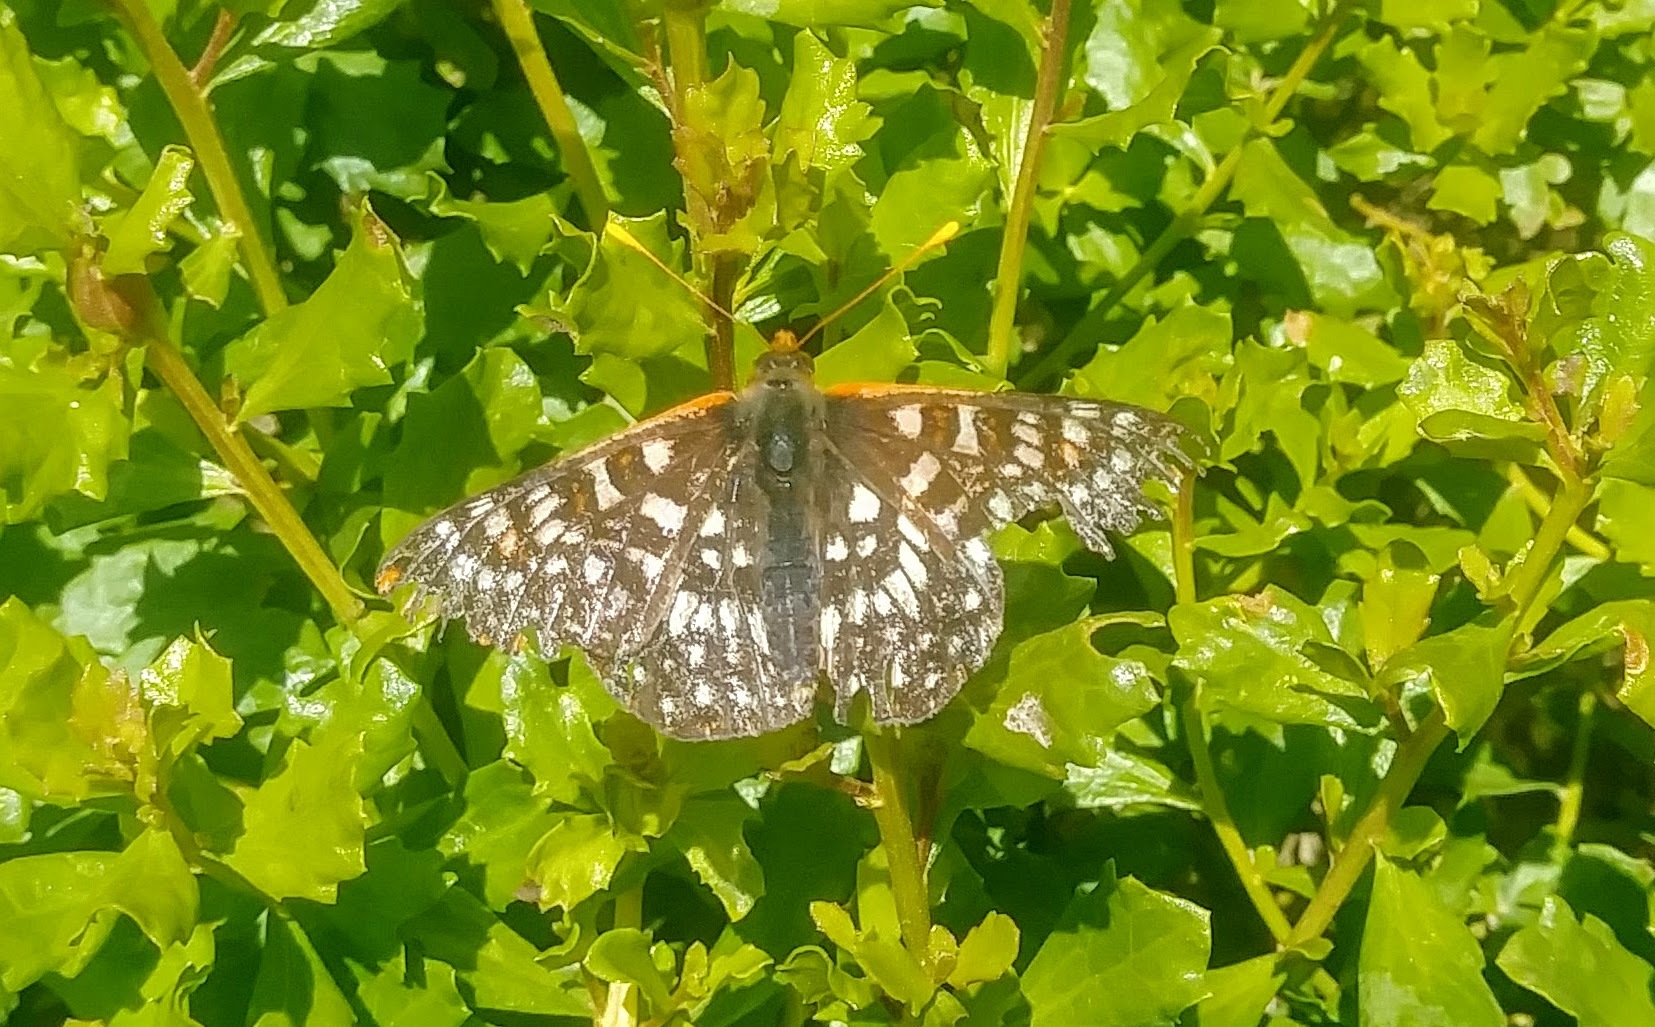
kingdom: Animalia
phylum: Arthropoda
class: Insecta
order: Lepidoptera
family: Nymphalidae
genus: Occidryas
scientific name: Occidryas chalcedona
